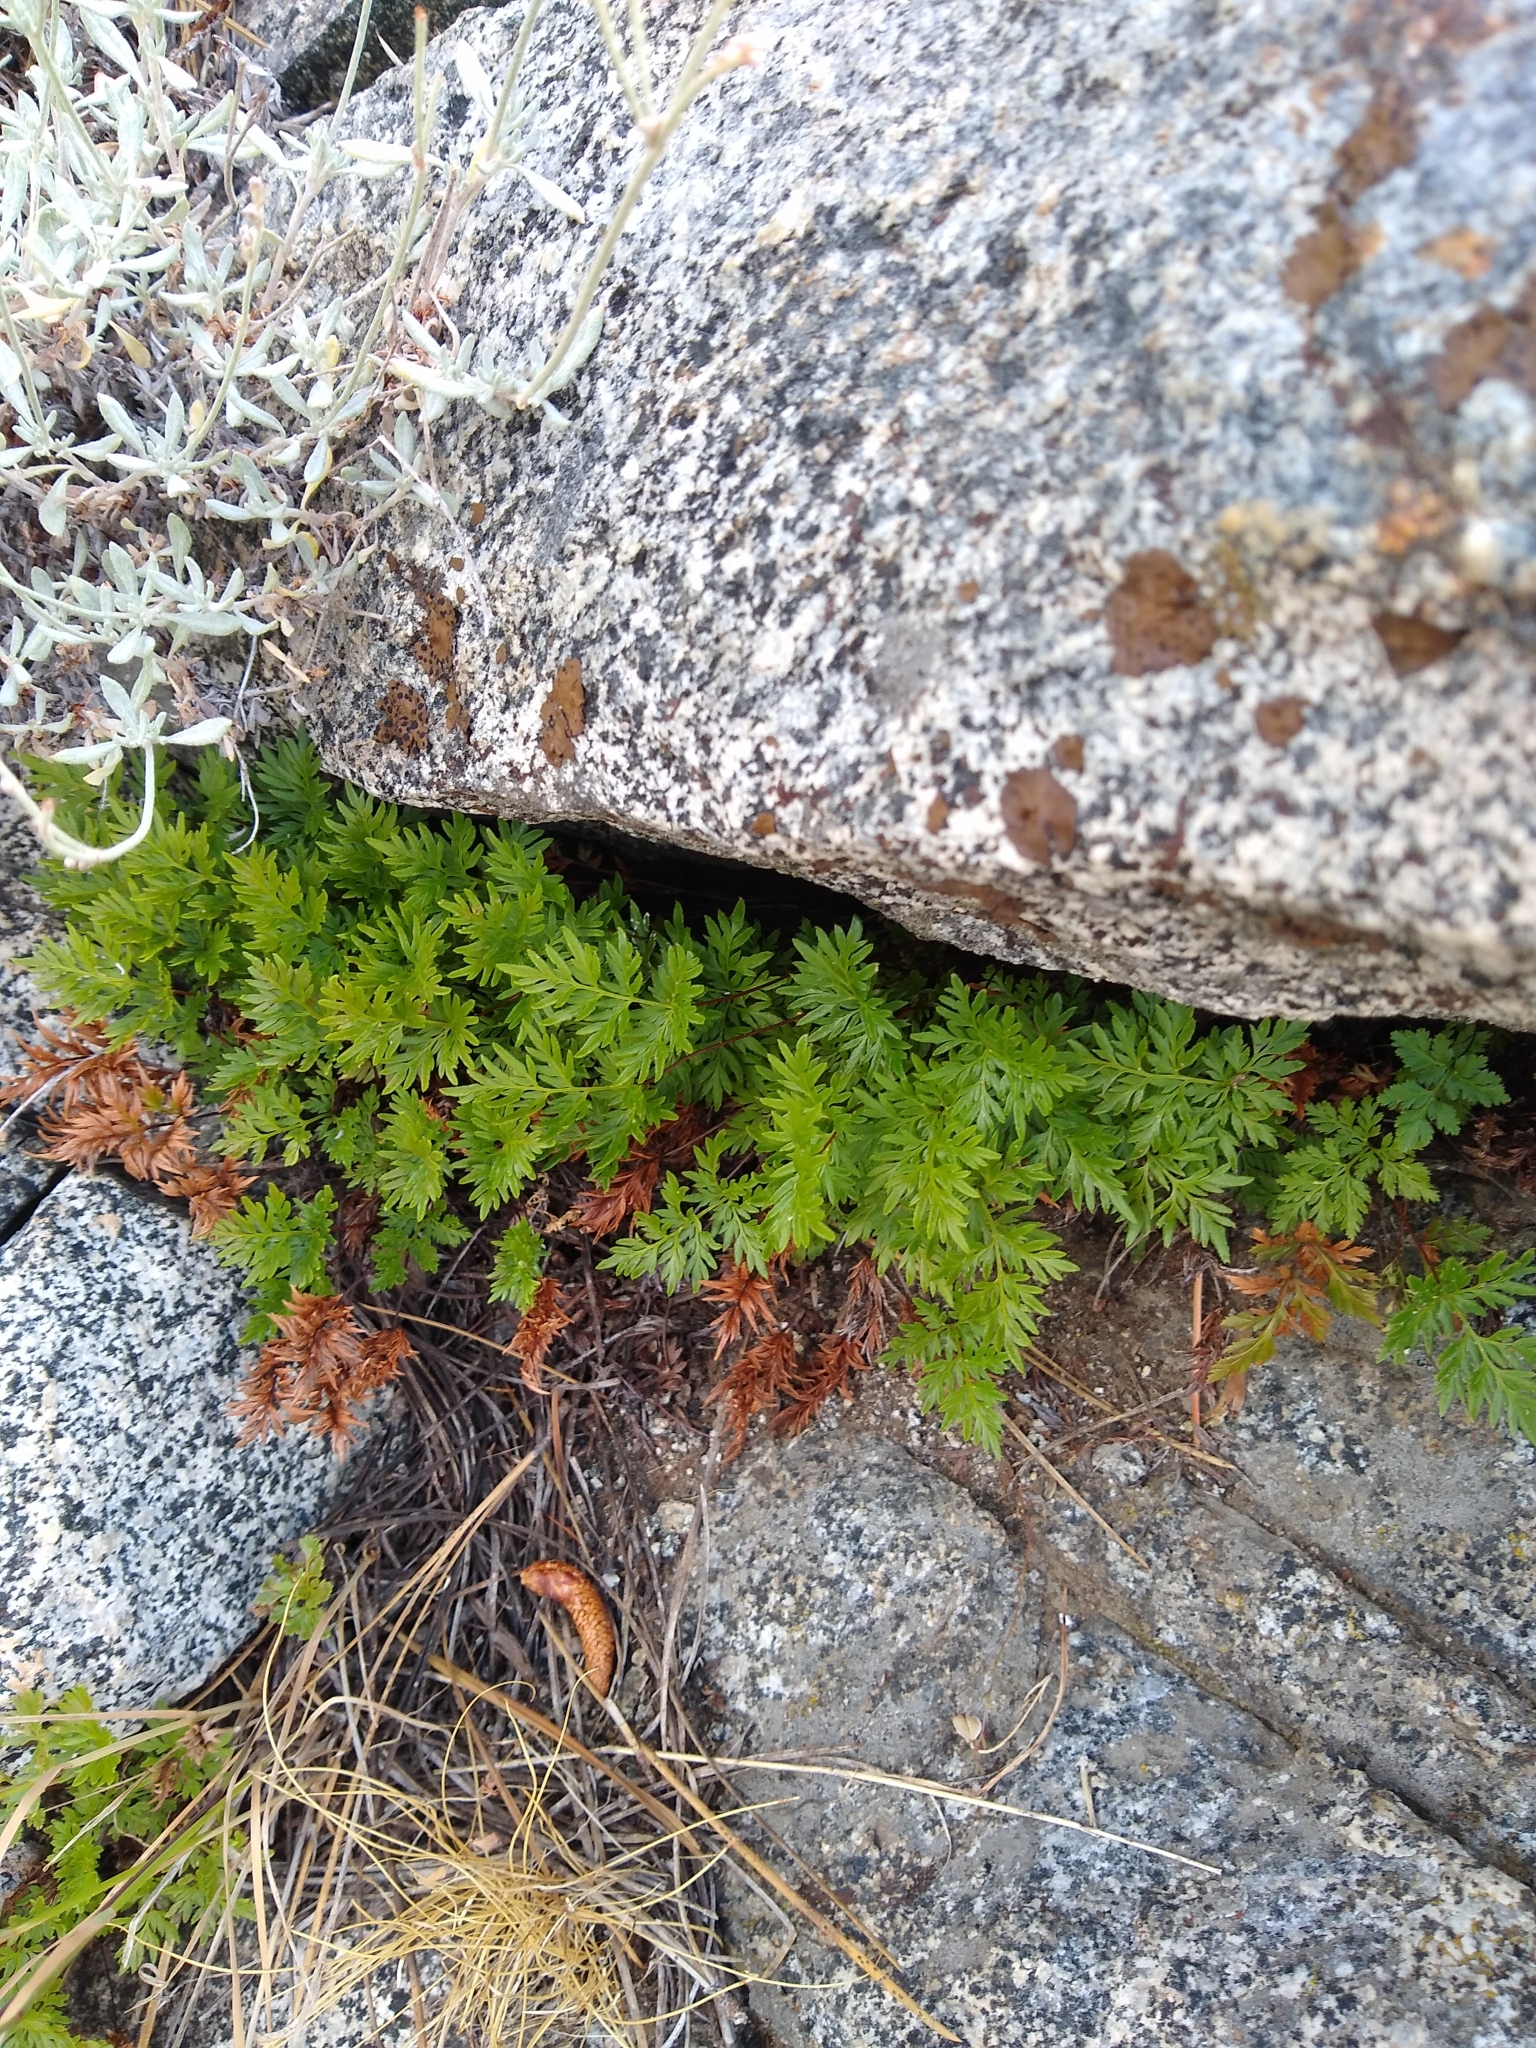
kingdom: Plantae
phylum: Tracheophyta
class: Polypodiopsida
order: Polypodiales
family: Pteridaceae
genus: Aspidotis
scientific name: Aspidotis densa
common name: Indian's dream
